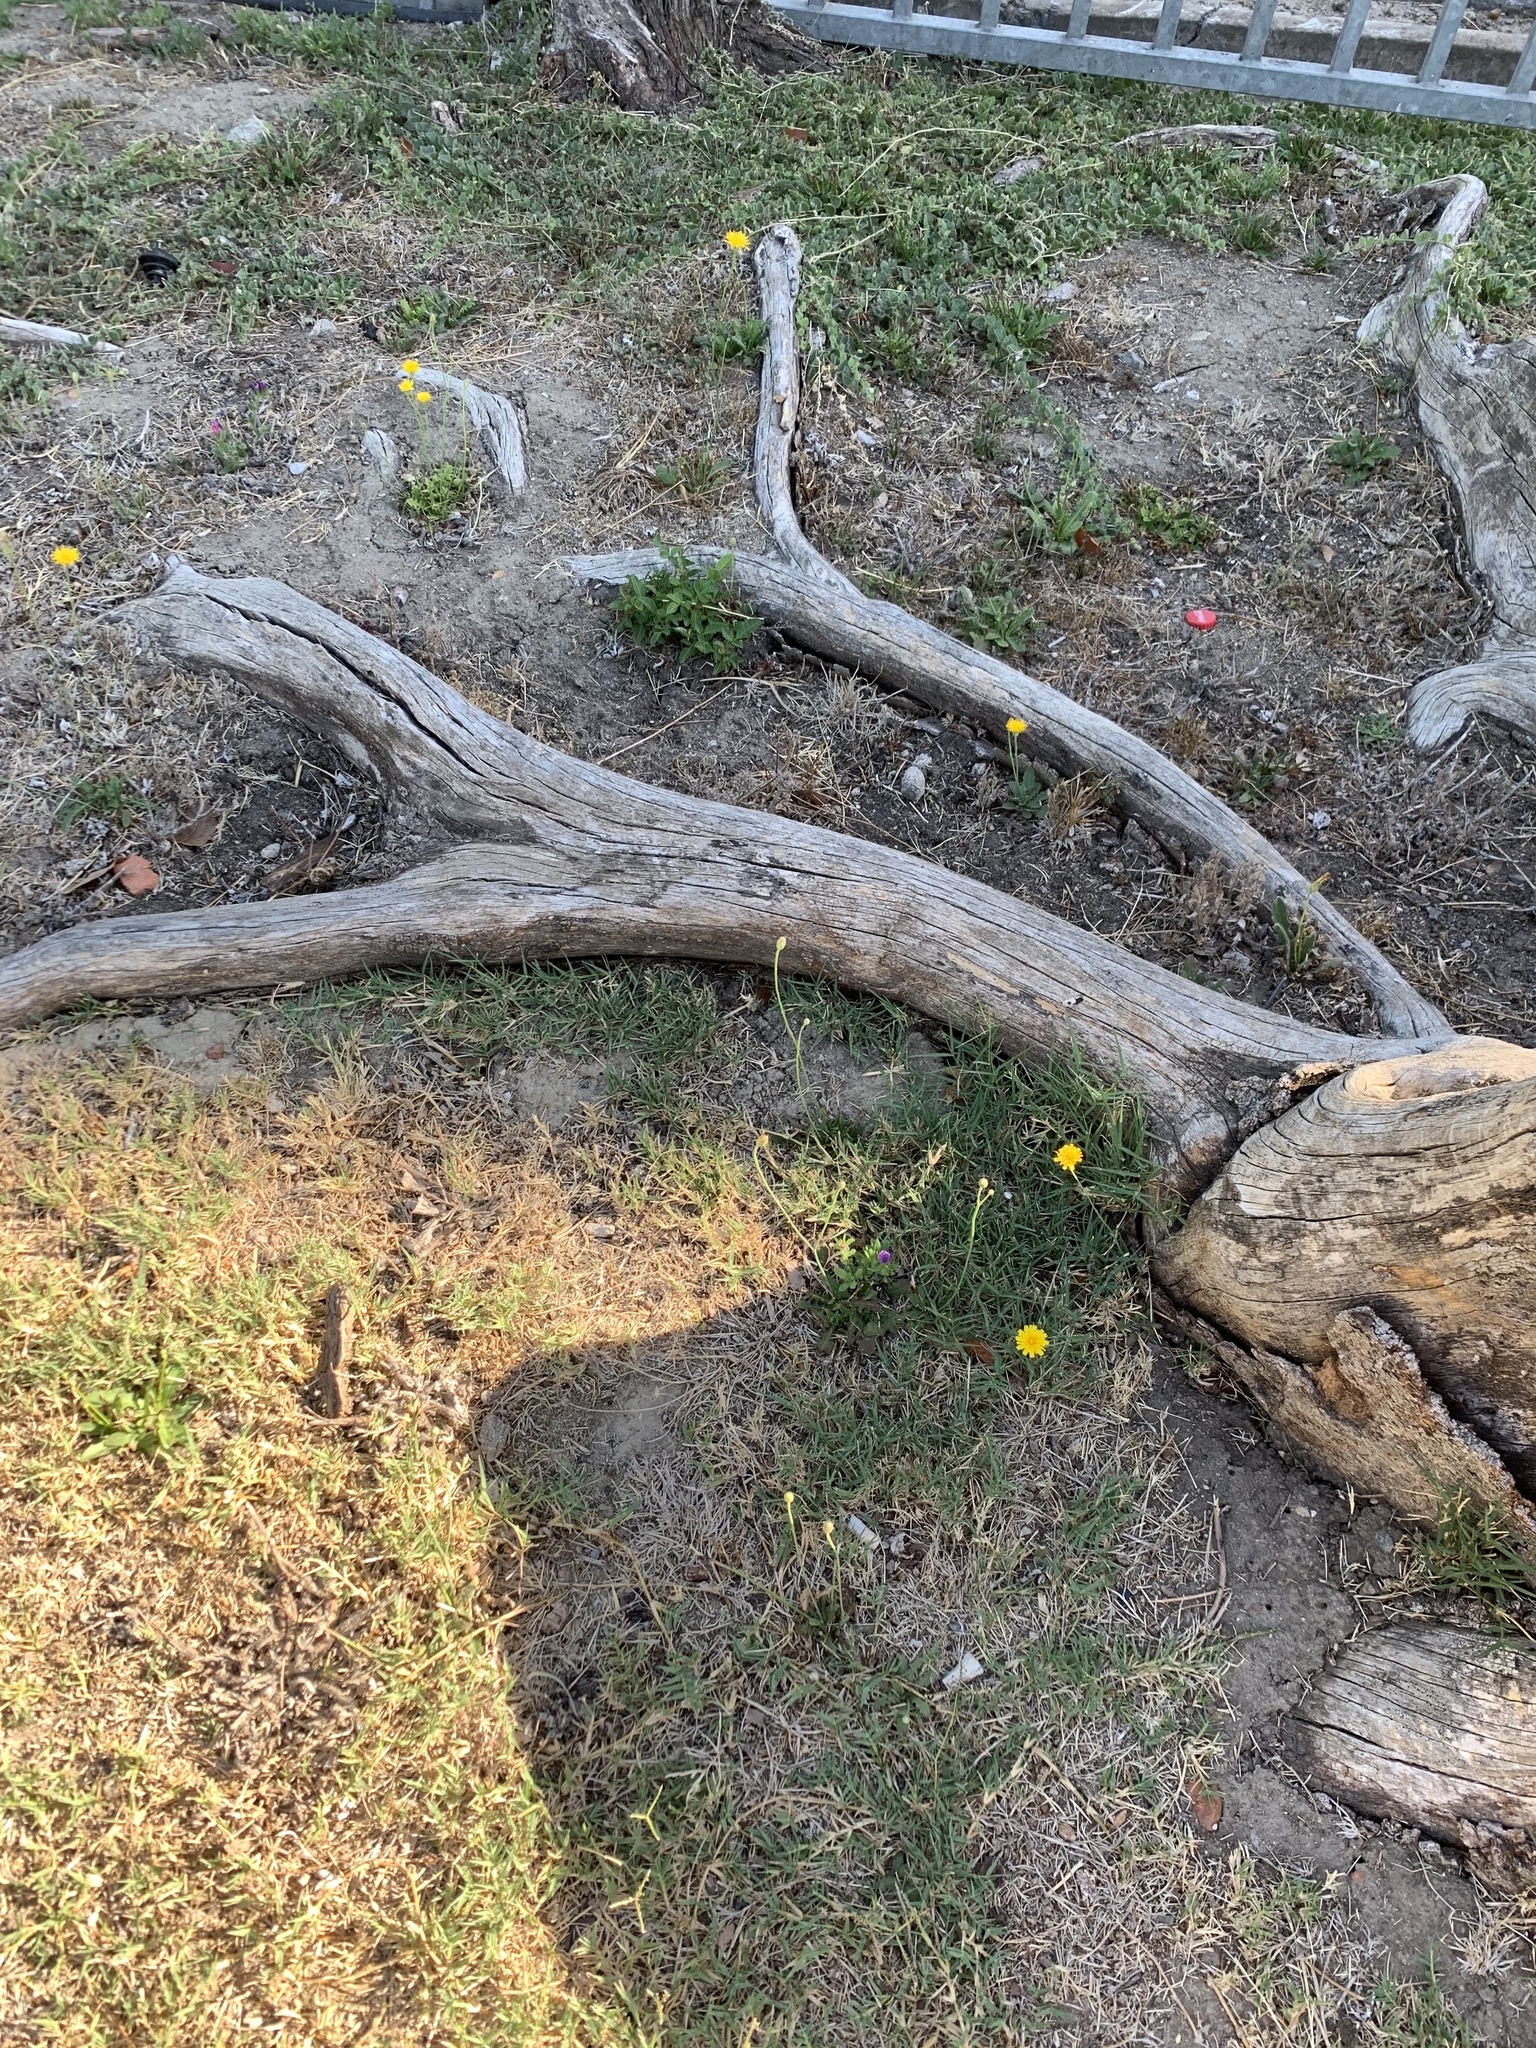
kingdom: Plantae
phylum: Tracheophyta
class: Magnoliopsida
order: Asterales
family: Asteraceae
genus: Hypochaeris
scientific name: Hypochaeris radicata
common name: Flatweed
